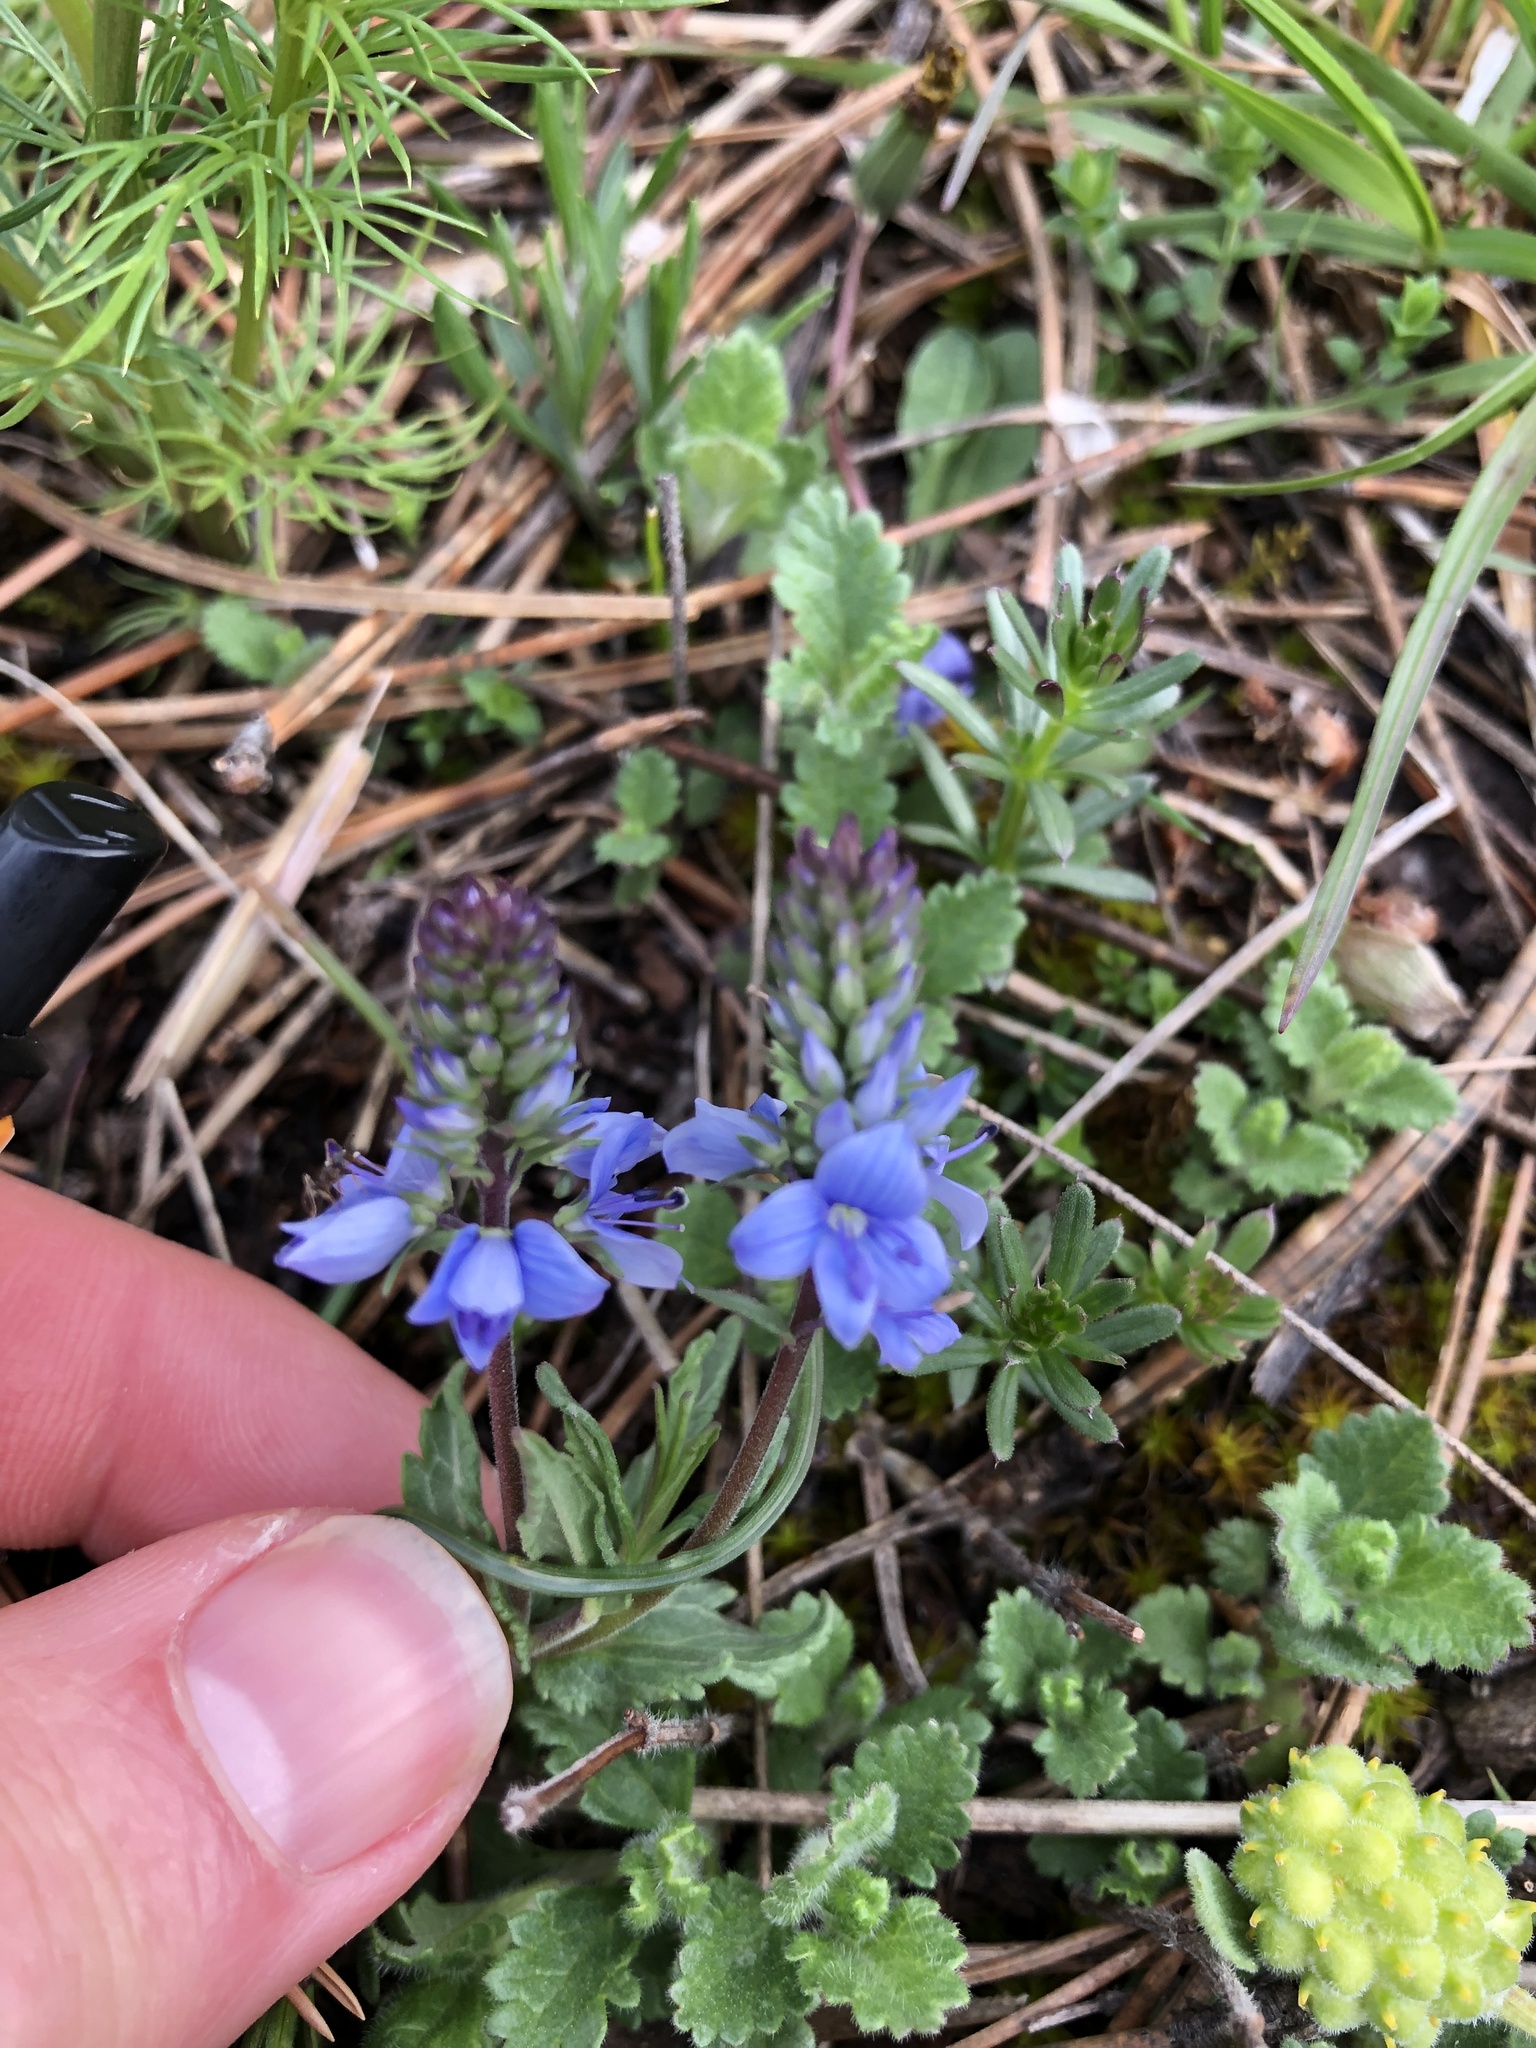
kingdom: Plantae
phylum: Tracheophyta
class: Magnoliopsida
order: Lamiales
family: Plantaginaceae
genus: Veronica
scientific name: Veronica prostrata
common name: Prostrate speedwell
